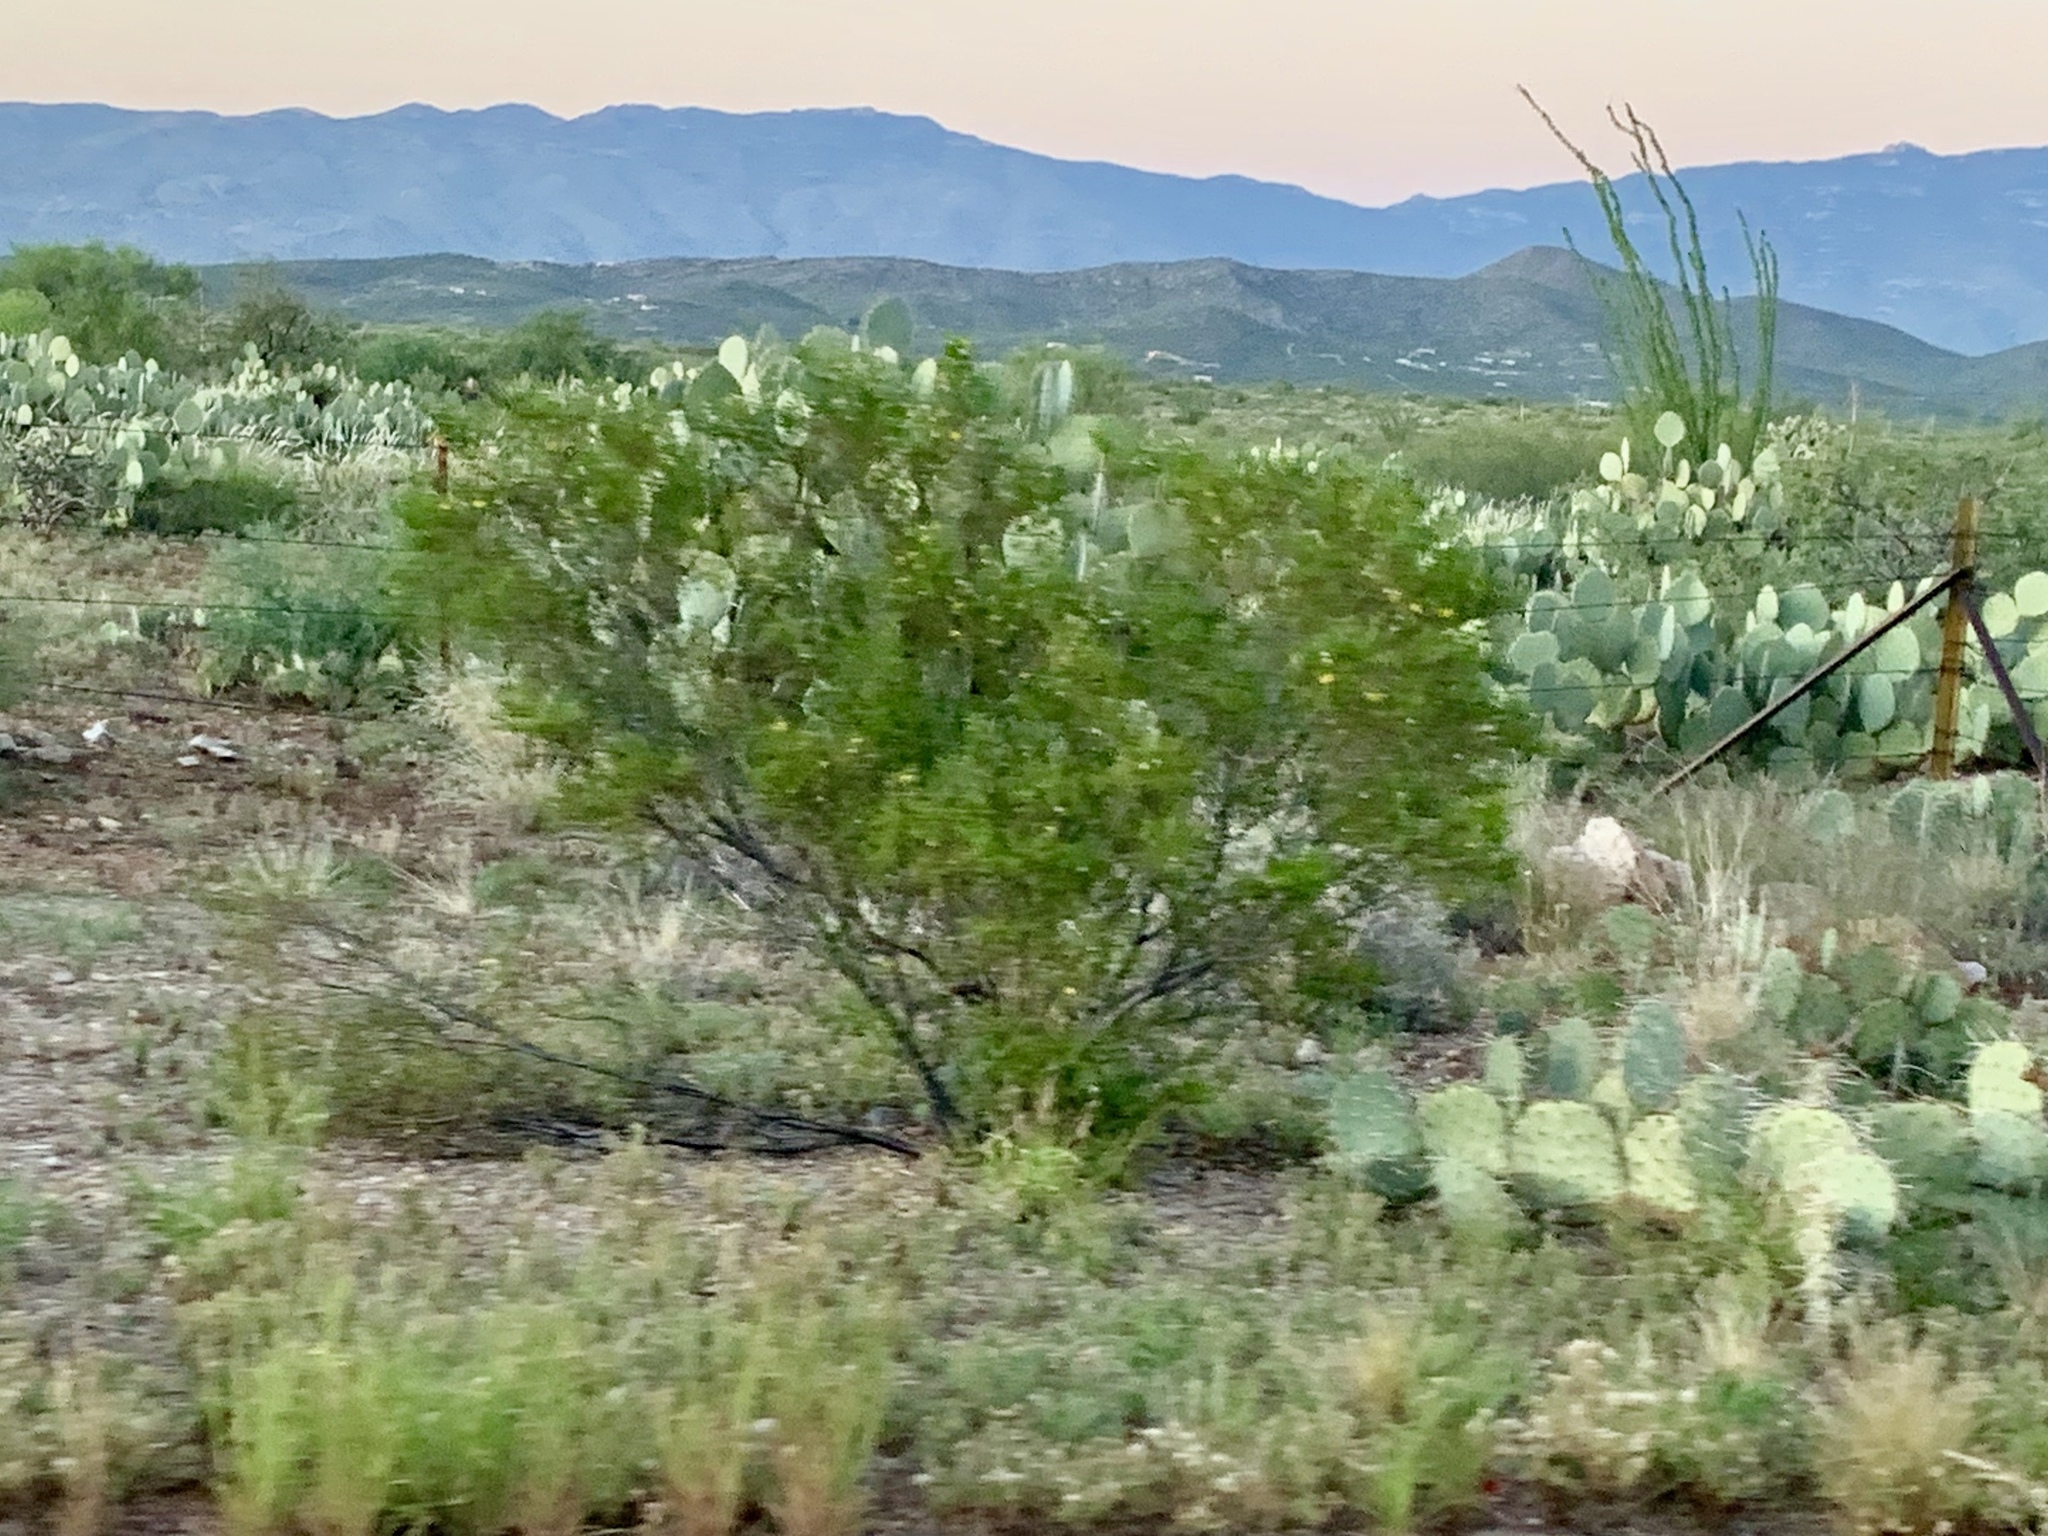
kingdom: Plantae
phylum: Tracheophyta
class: Magnoliopsida
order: Zygophyllales
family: Zygophyllaceae
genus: Larrea
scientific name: Larrea tridentata
